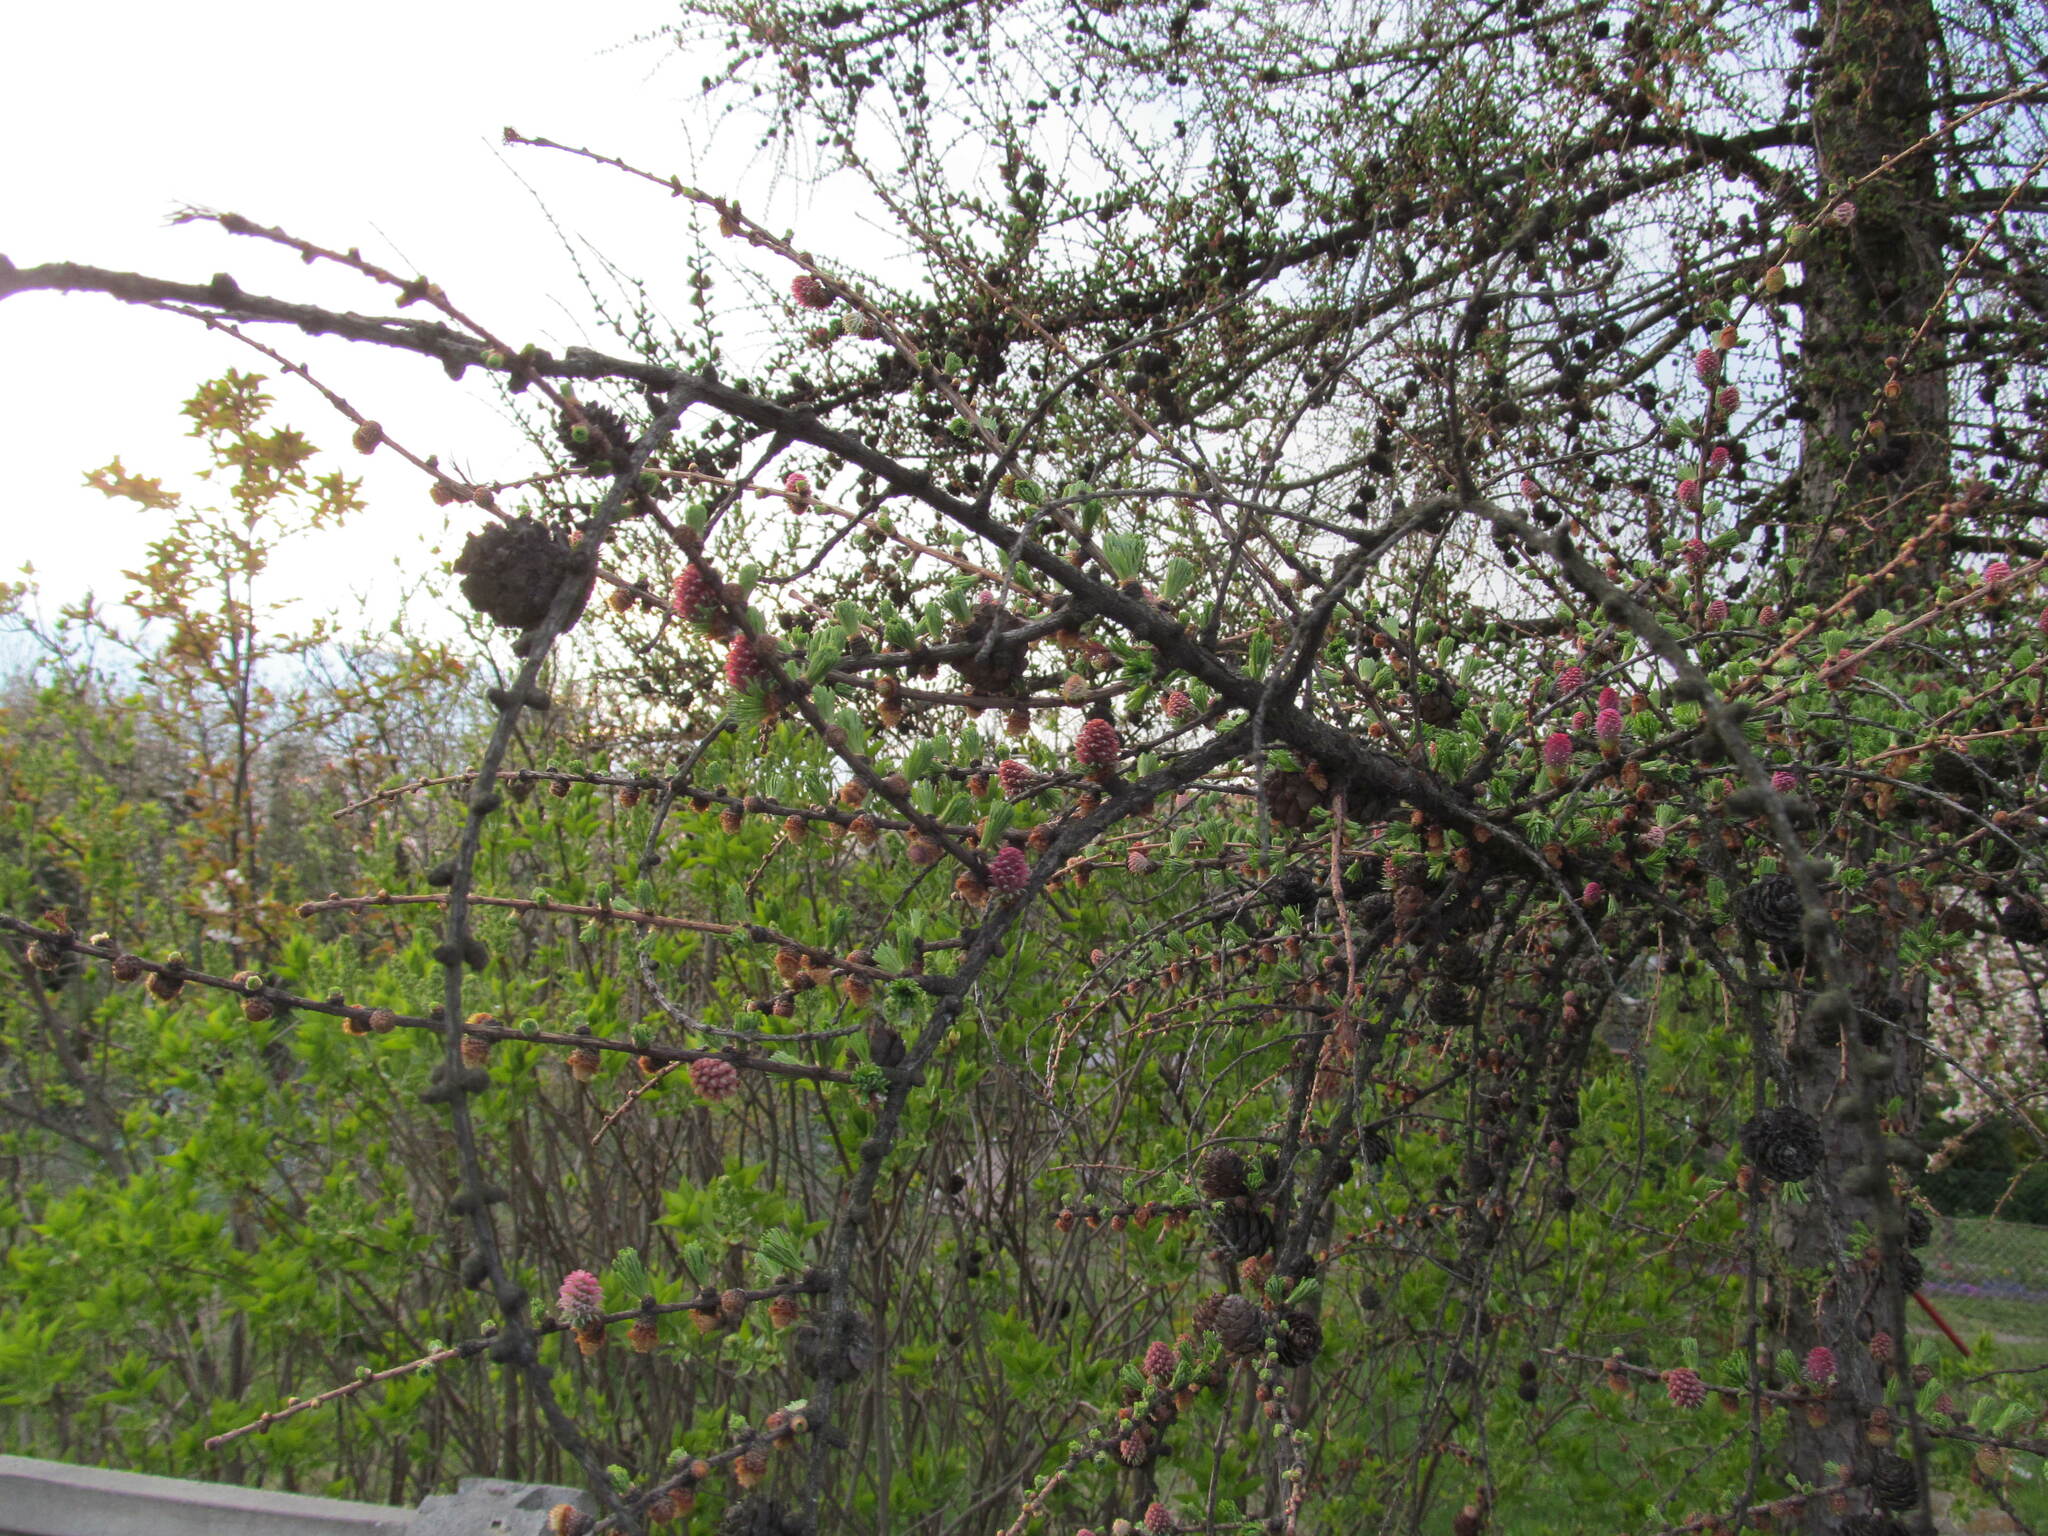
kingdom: Plantae
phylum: Tracheophyta
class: Pinopsida
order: Pinales
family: Pinaceae
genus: Larix
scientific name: Larix decidua
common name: European larch
